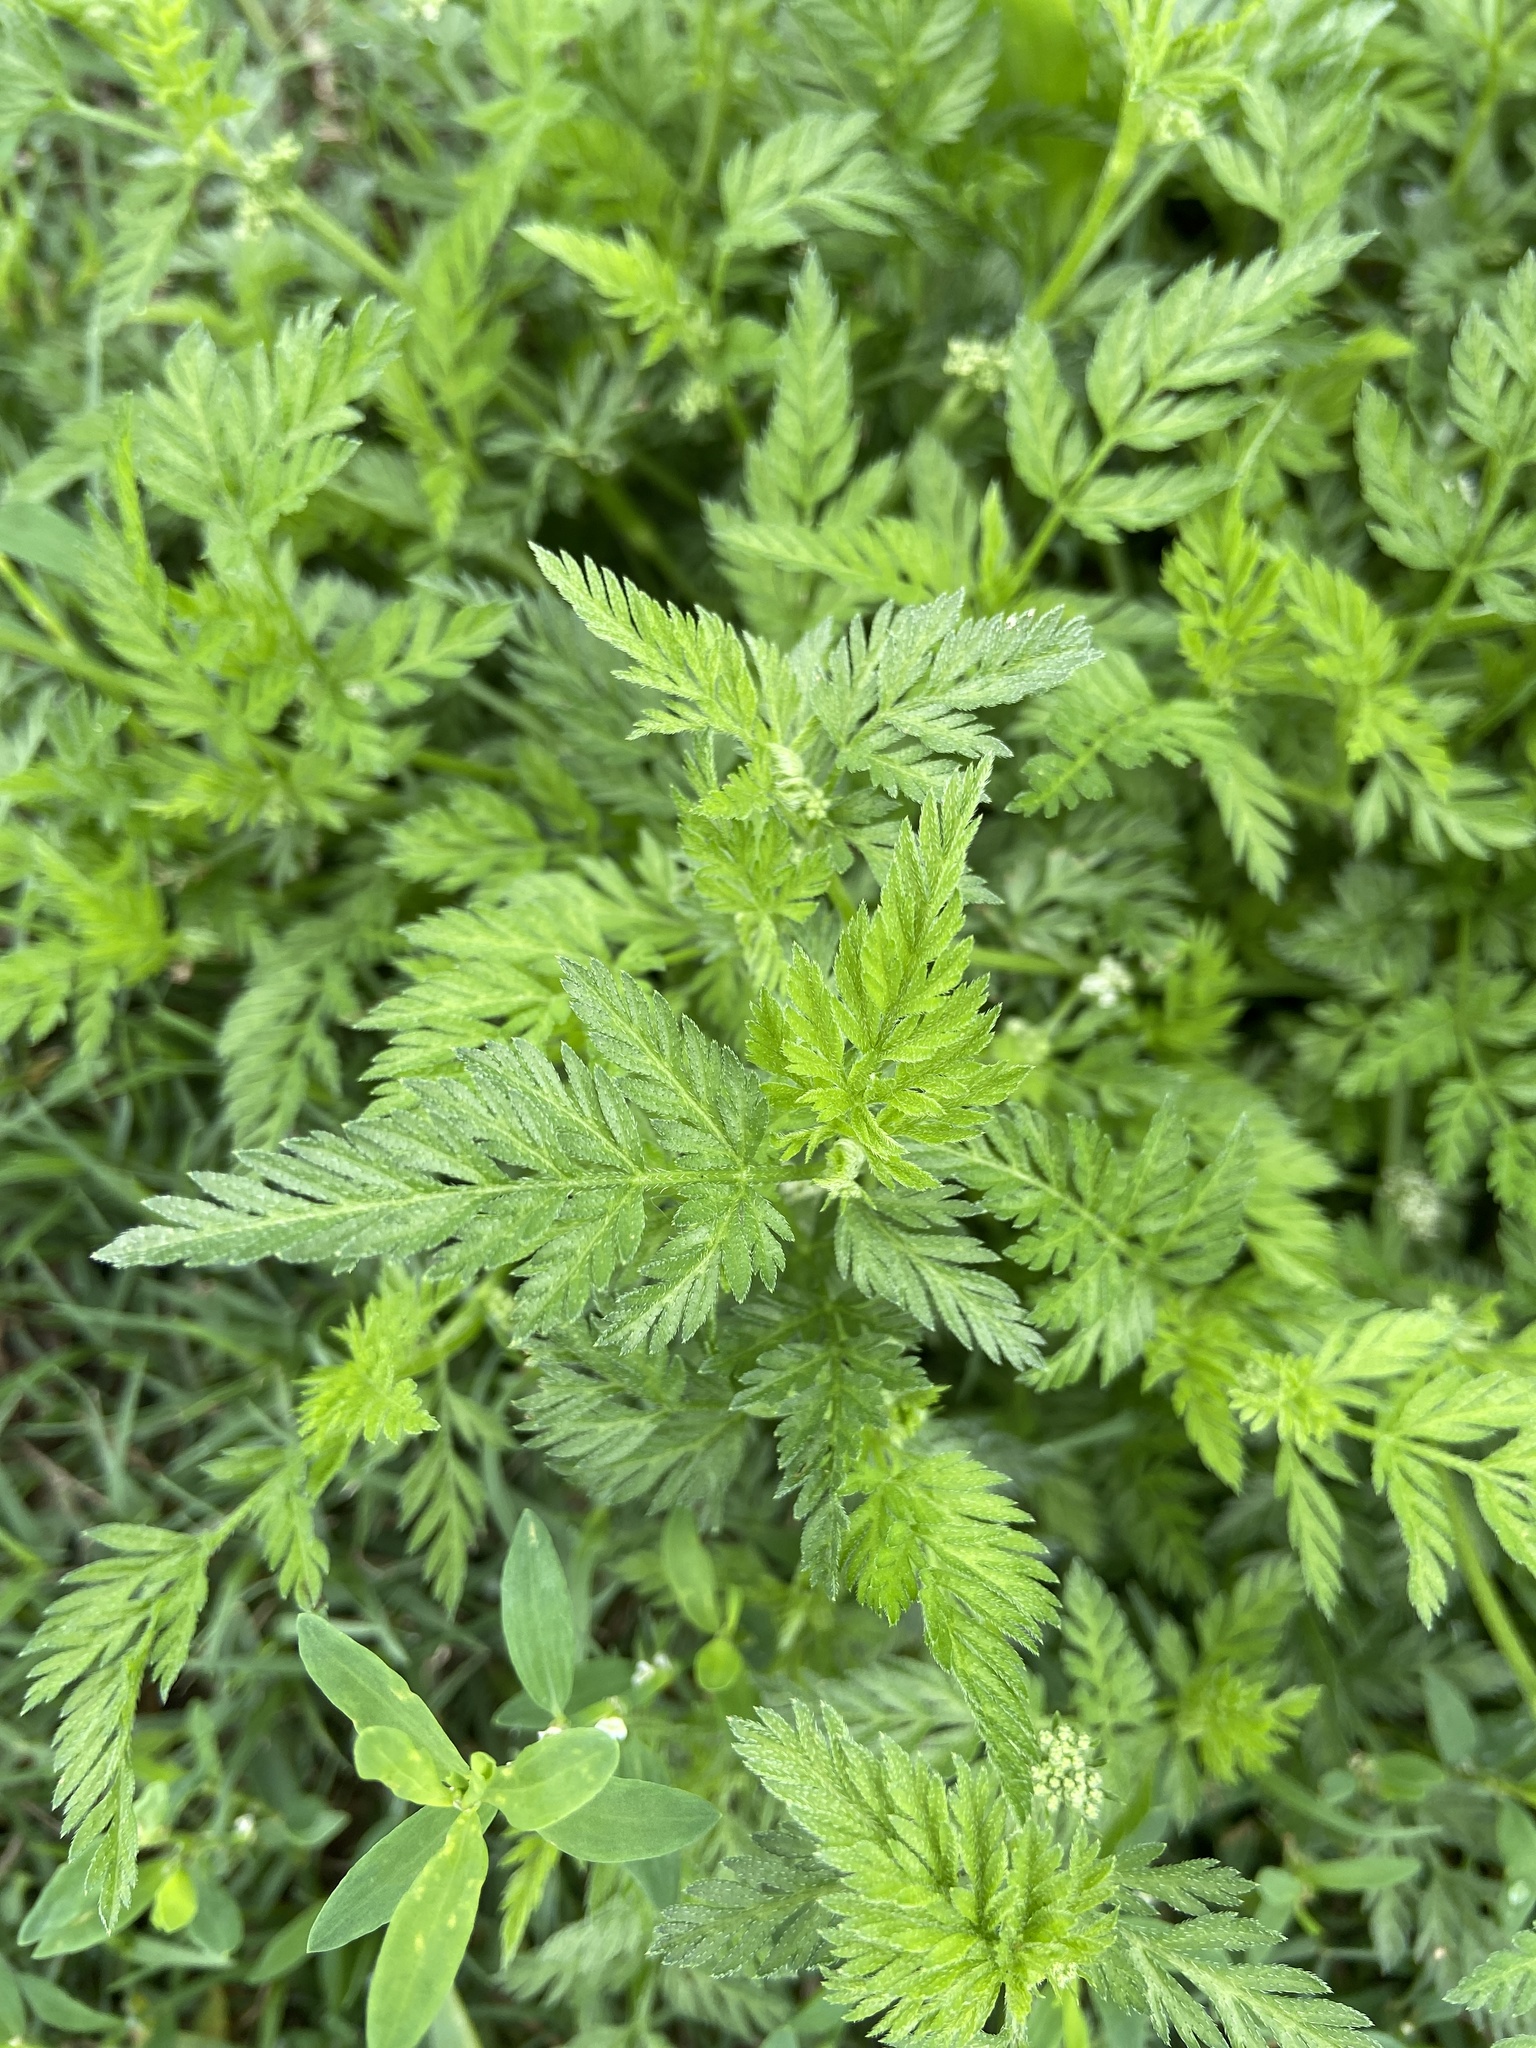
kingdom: Plantae
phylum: Tracheophyta
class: Magnoliopsida
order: Apiales
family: Apiaceae
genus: Torilis
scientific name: Torilis nodosa
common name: Knotted hedge-parsley
